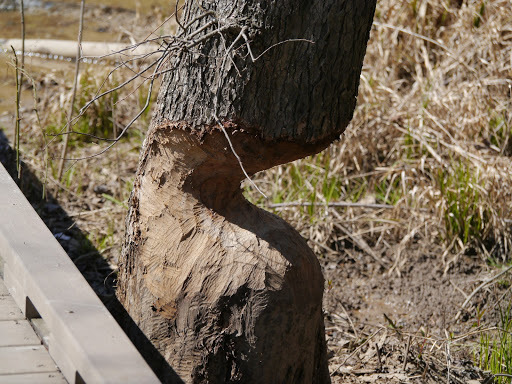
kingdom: Animalia
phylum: Chordata
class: Mammalia
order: Rodentia
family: Castoridae
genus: Castor
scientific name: Castor canadensis
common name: American beaver
